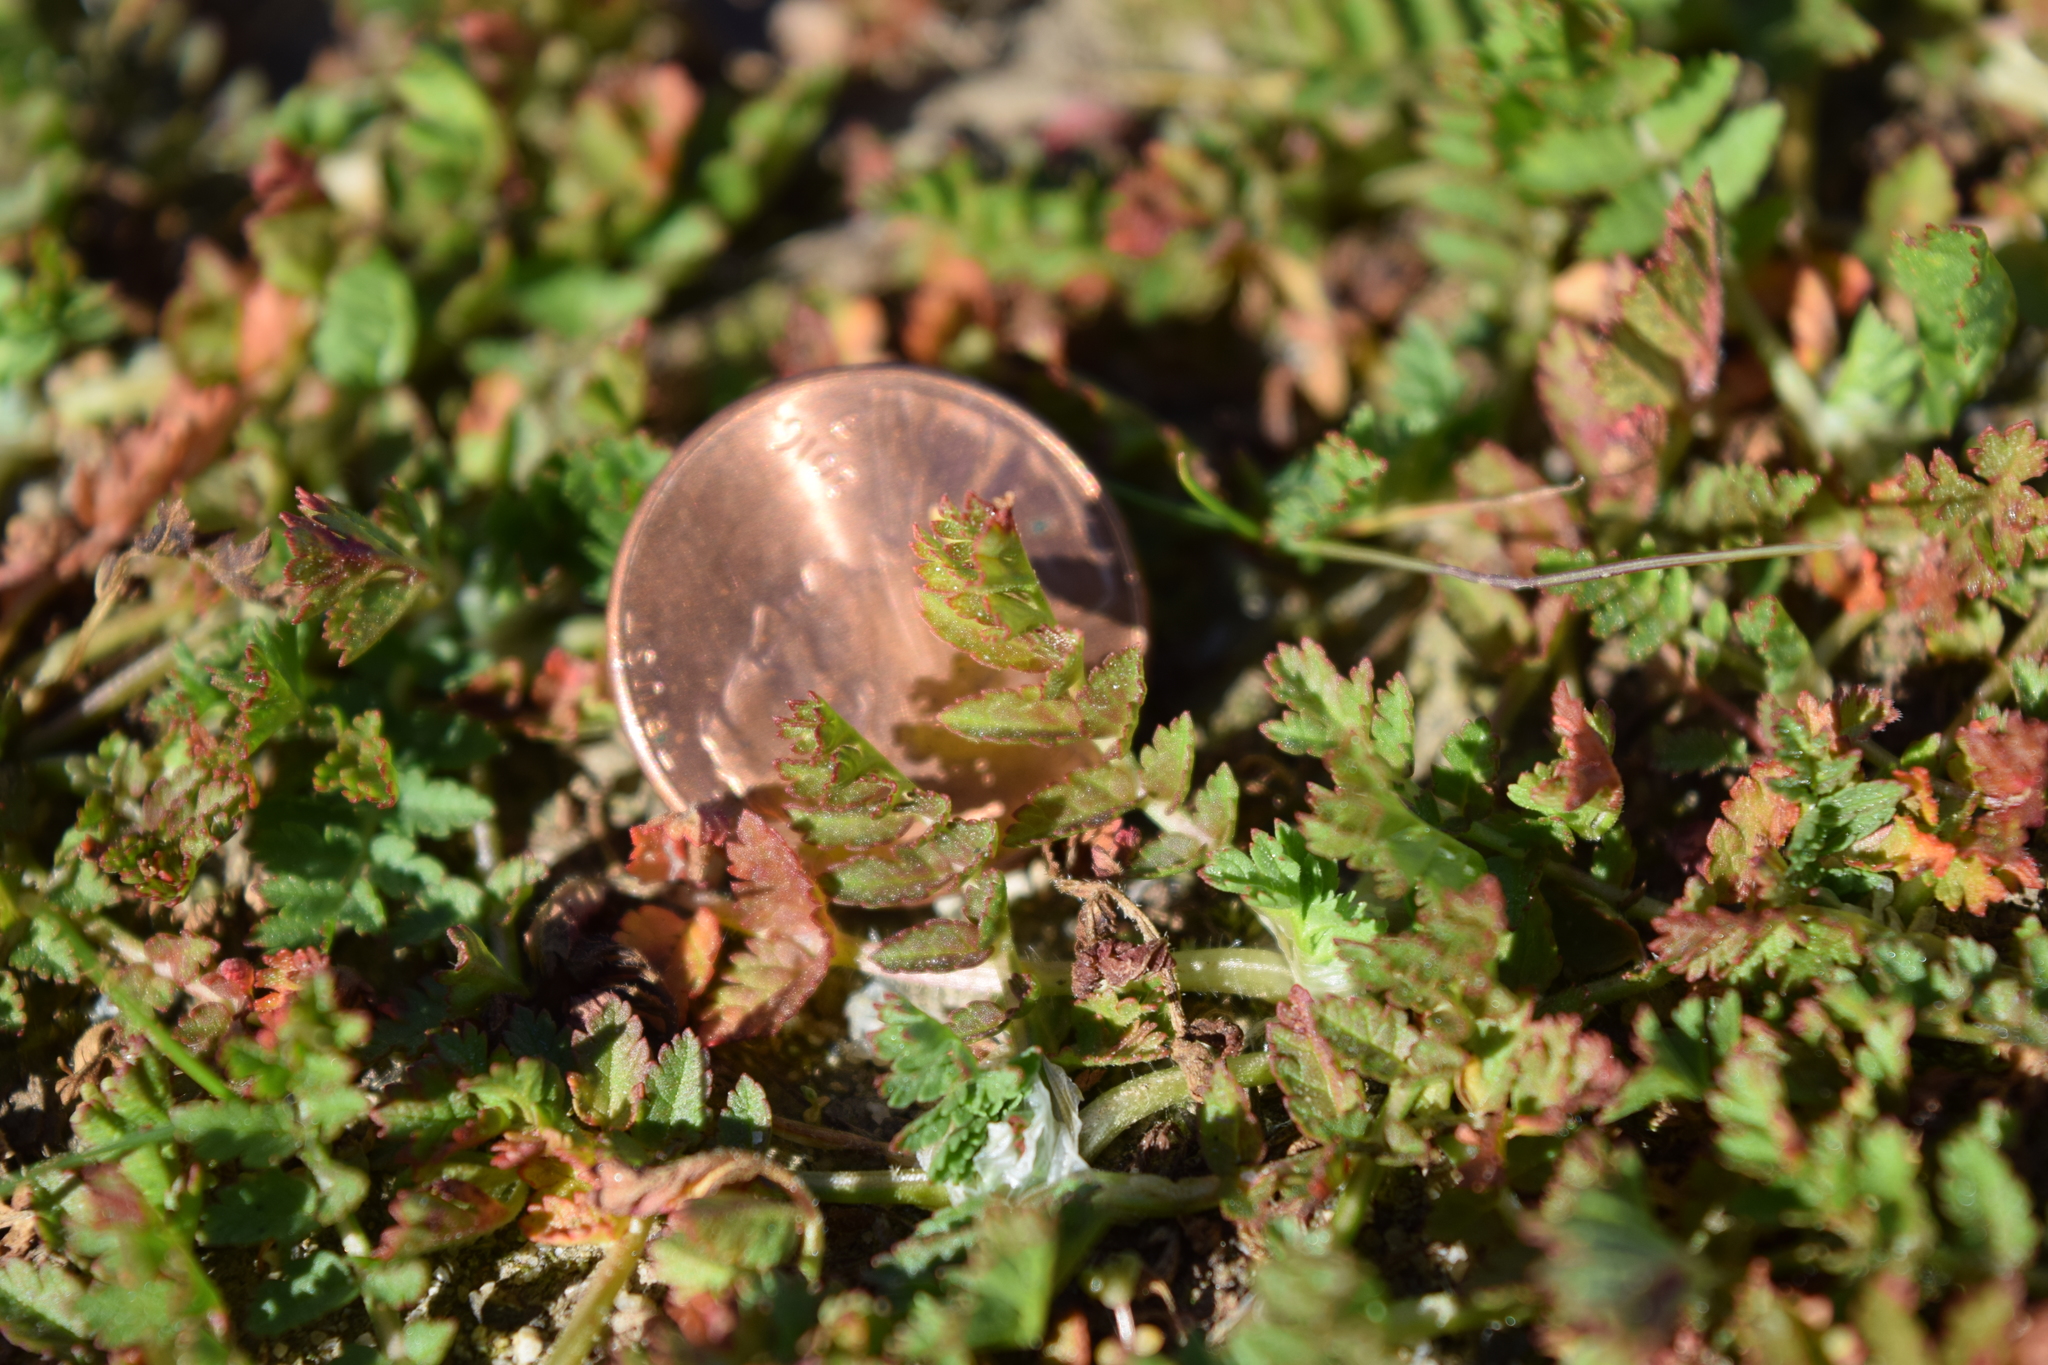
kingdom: Plantae
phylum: Tracheophyta
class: Magnoliopsida
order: Geraniales
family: Geraniaceae
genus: Erodium
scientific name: Erodium cicutarium
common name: Common stork's-bill
